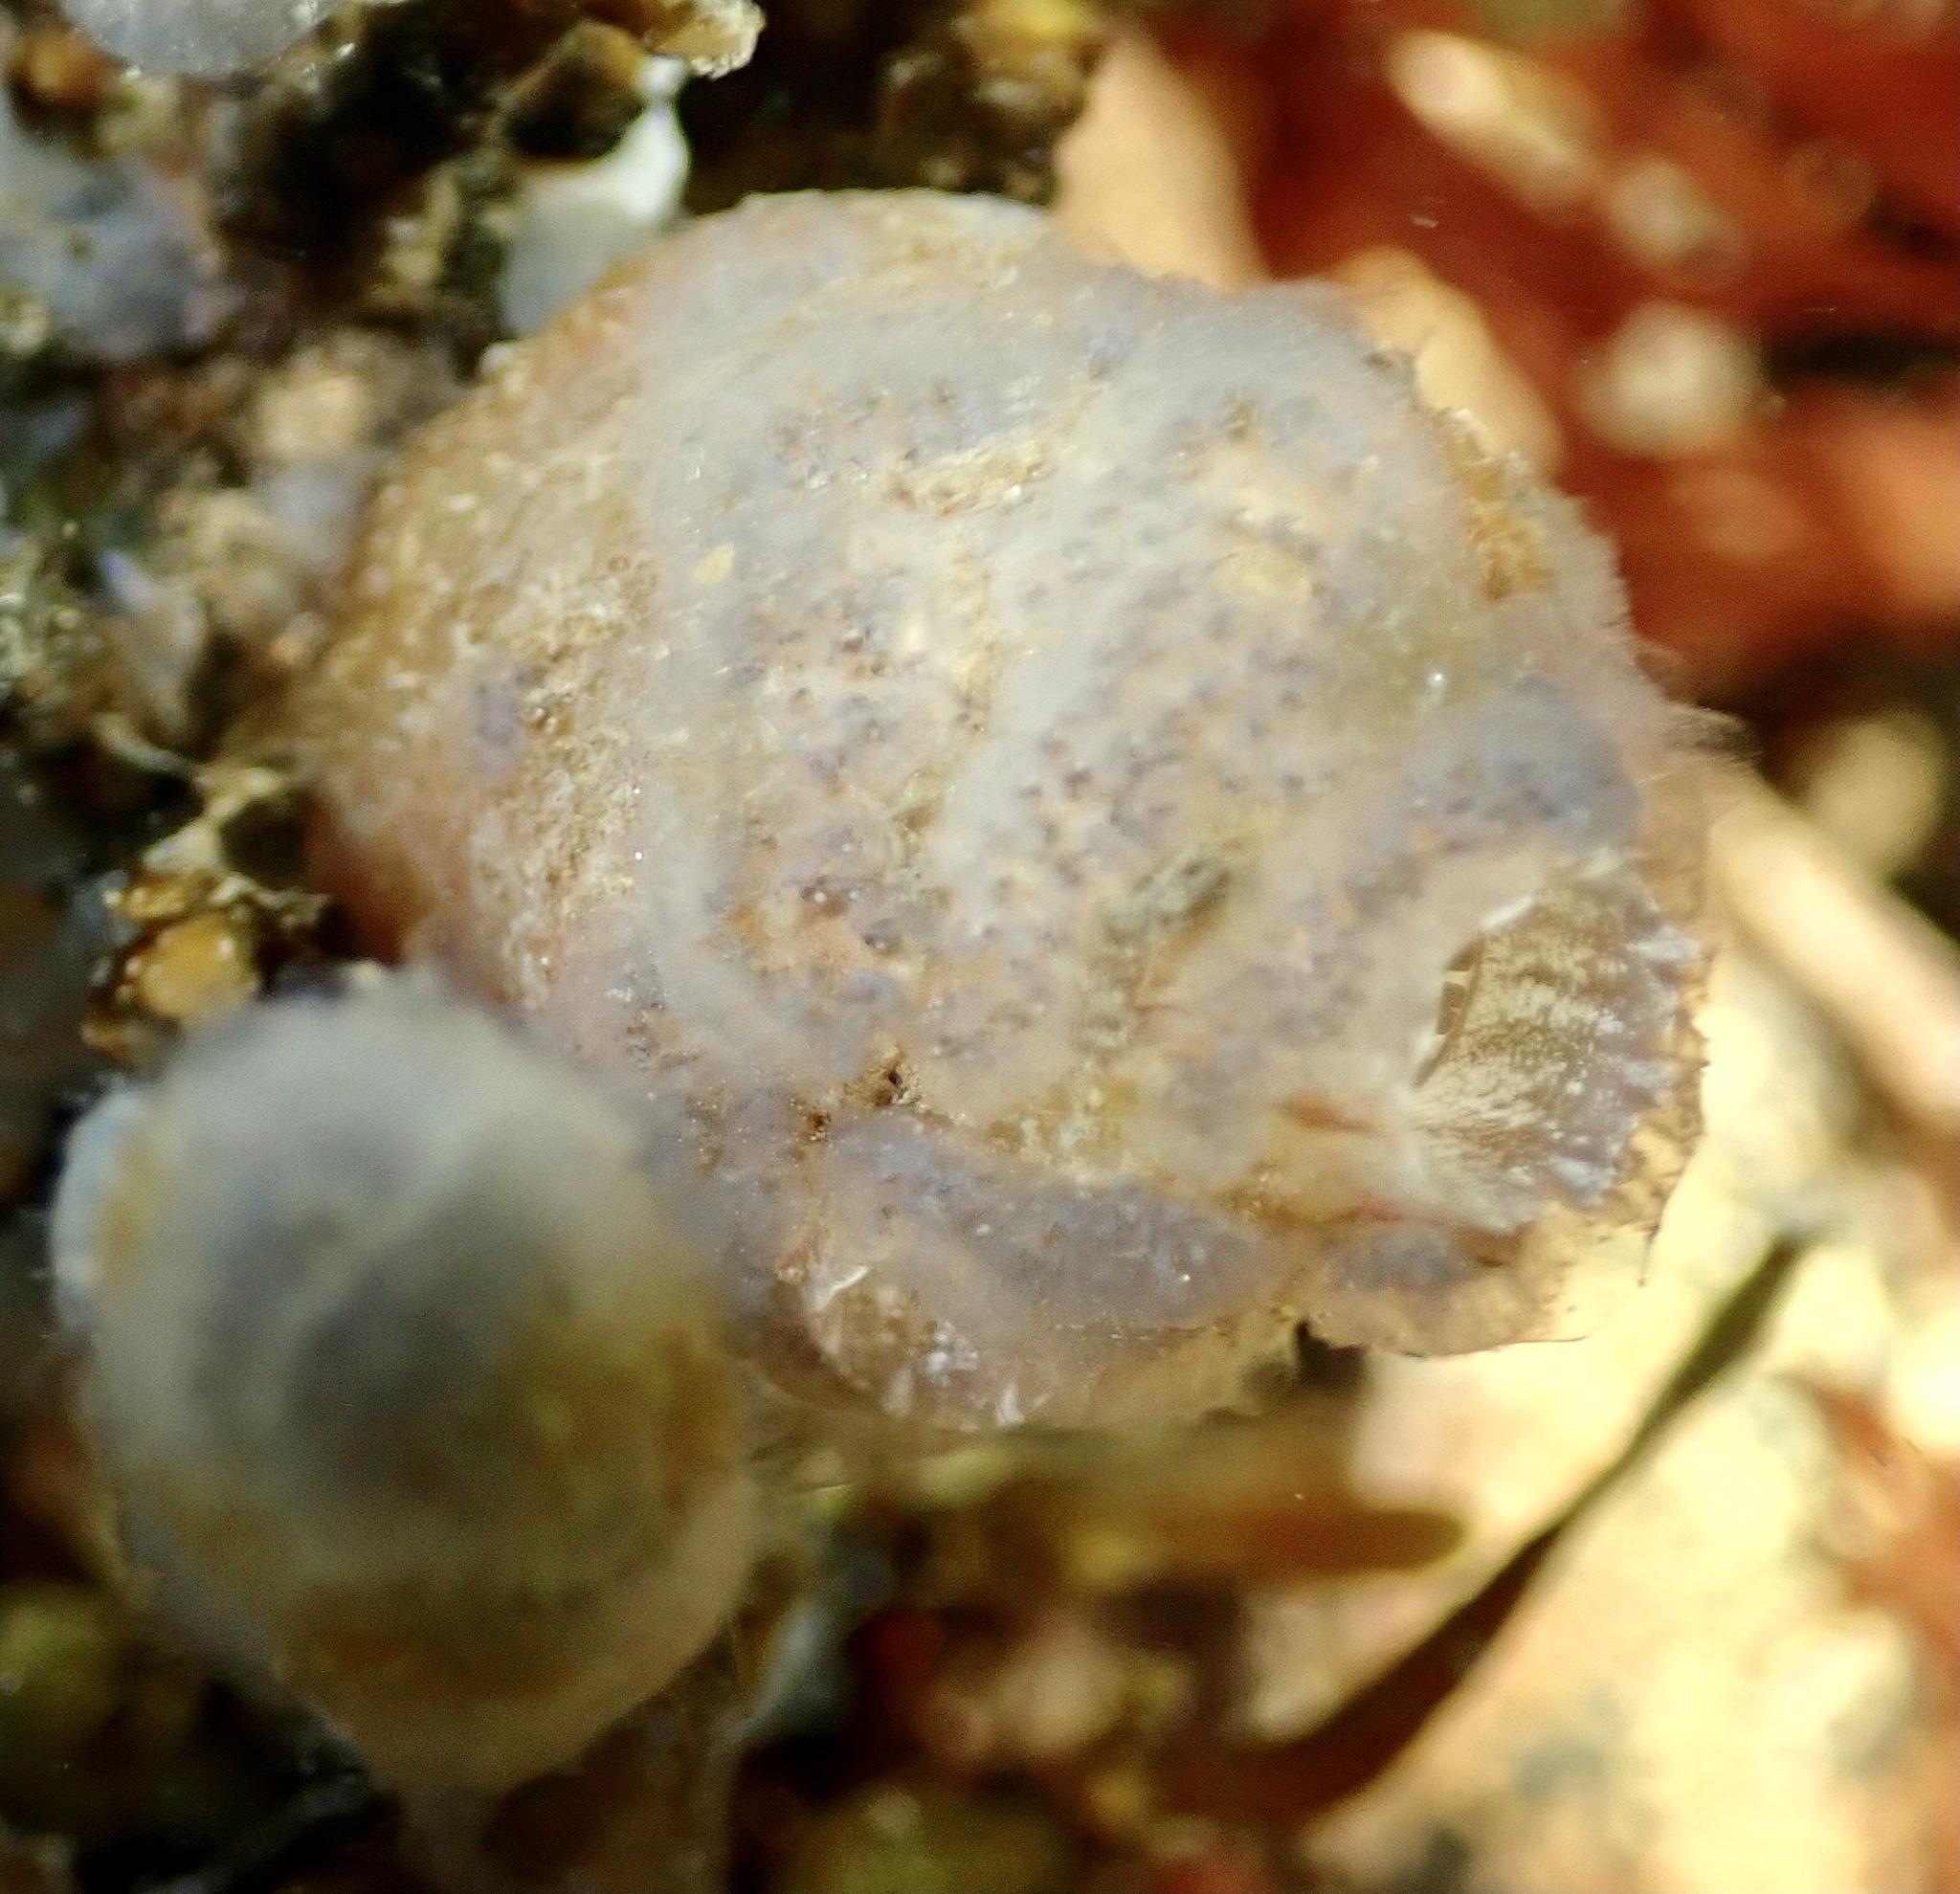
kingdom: Animalia
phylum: Chordata
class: Ascidiacea
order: Phlebobranchia
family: Ascidiidae
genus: Ascidiella
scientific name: Ascidiella aspersa
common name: Dirty sea-squirt
